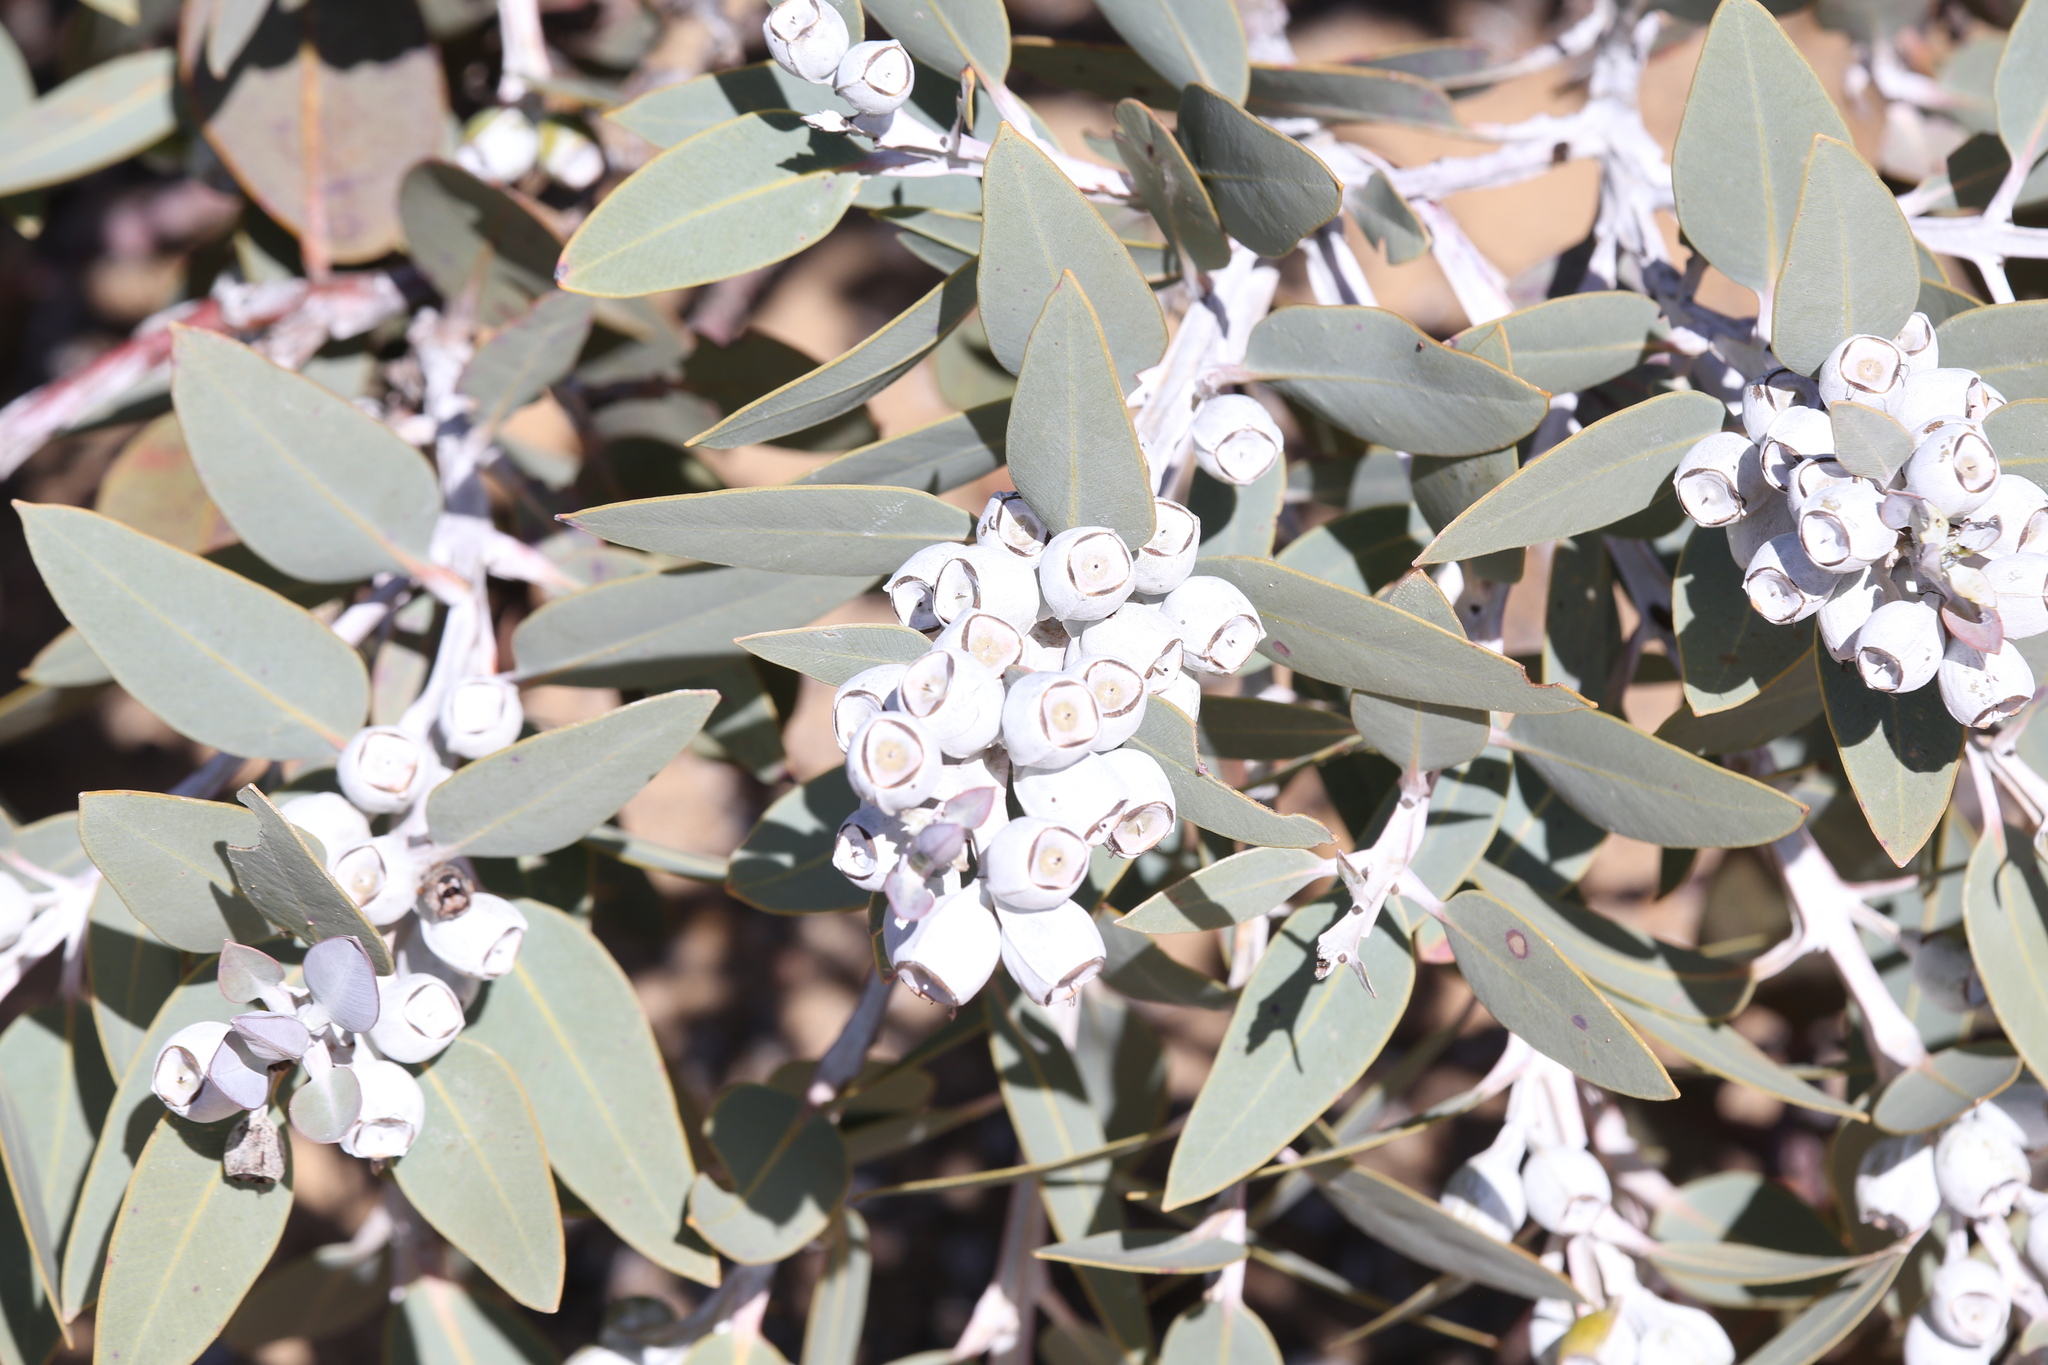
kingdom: Plantae
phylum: Tracheophyta
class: Magnoliopsida
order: Myrtales
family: Myrtaceae
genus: Eucalyptus
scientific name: Eucalyptus tetragona
